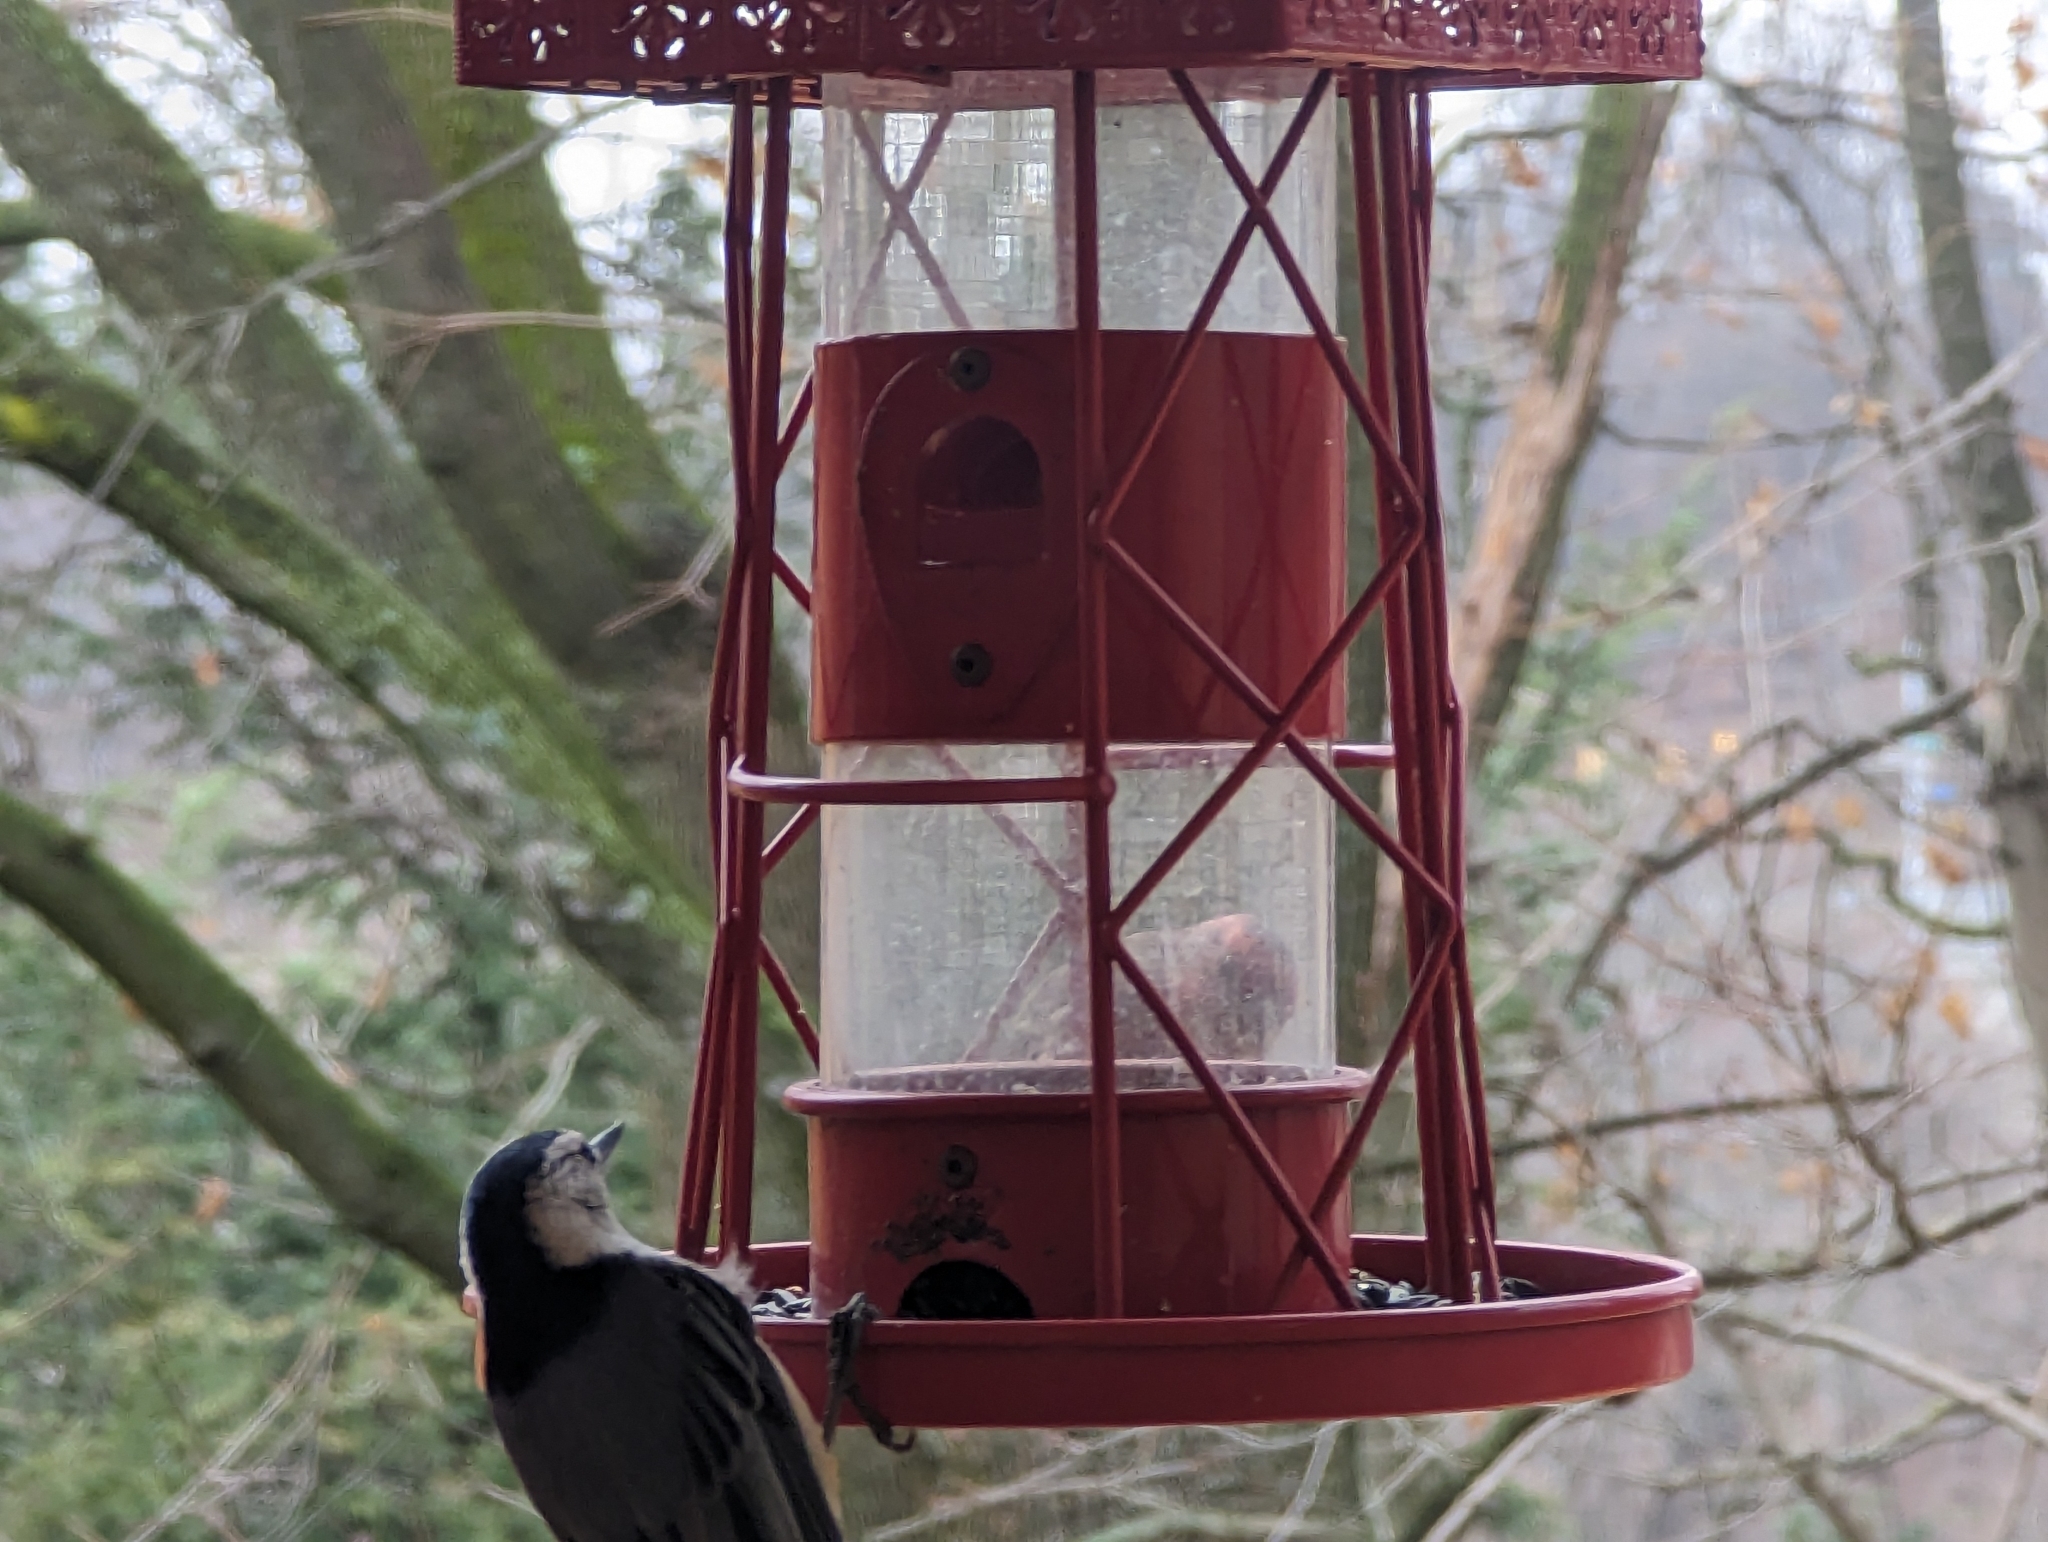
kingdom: Animalia
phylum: Chordata
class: Aves
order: Passeriformes
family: Sittidae
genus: Sitta
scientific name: Sitta carolinensis
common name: White-breasted nuthatch
